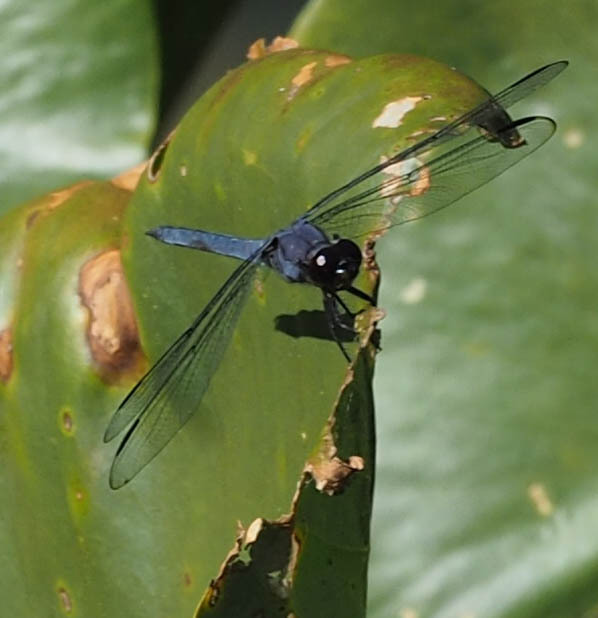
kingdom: Animalia
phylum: Arthropoda
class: Insecta
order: Odonata
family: Libellulidae
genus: Libellula
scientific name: Libellula incesta
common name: Slaty skimmer
